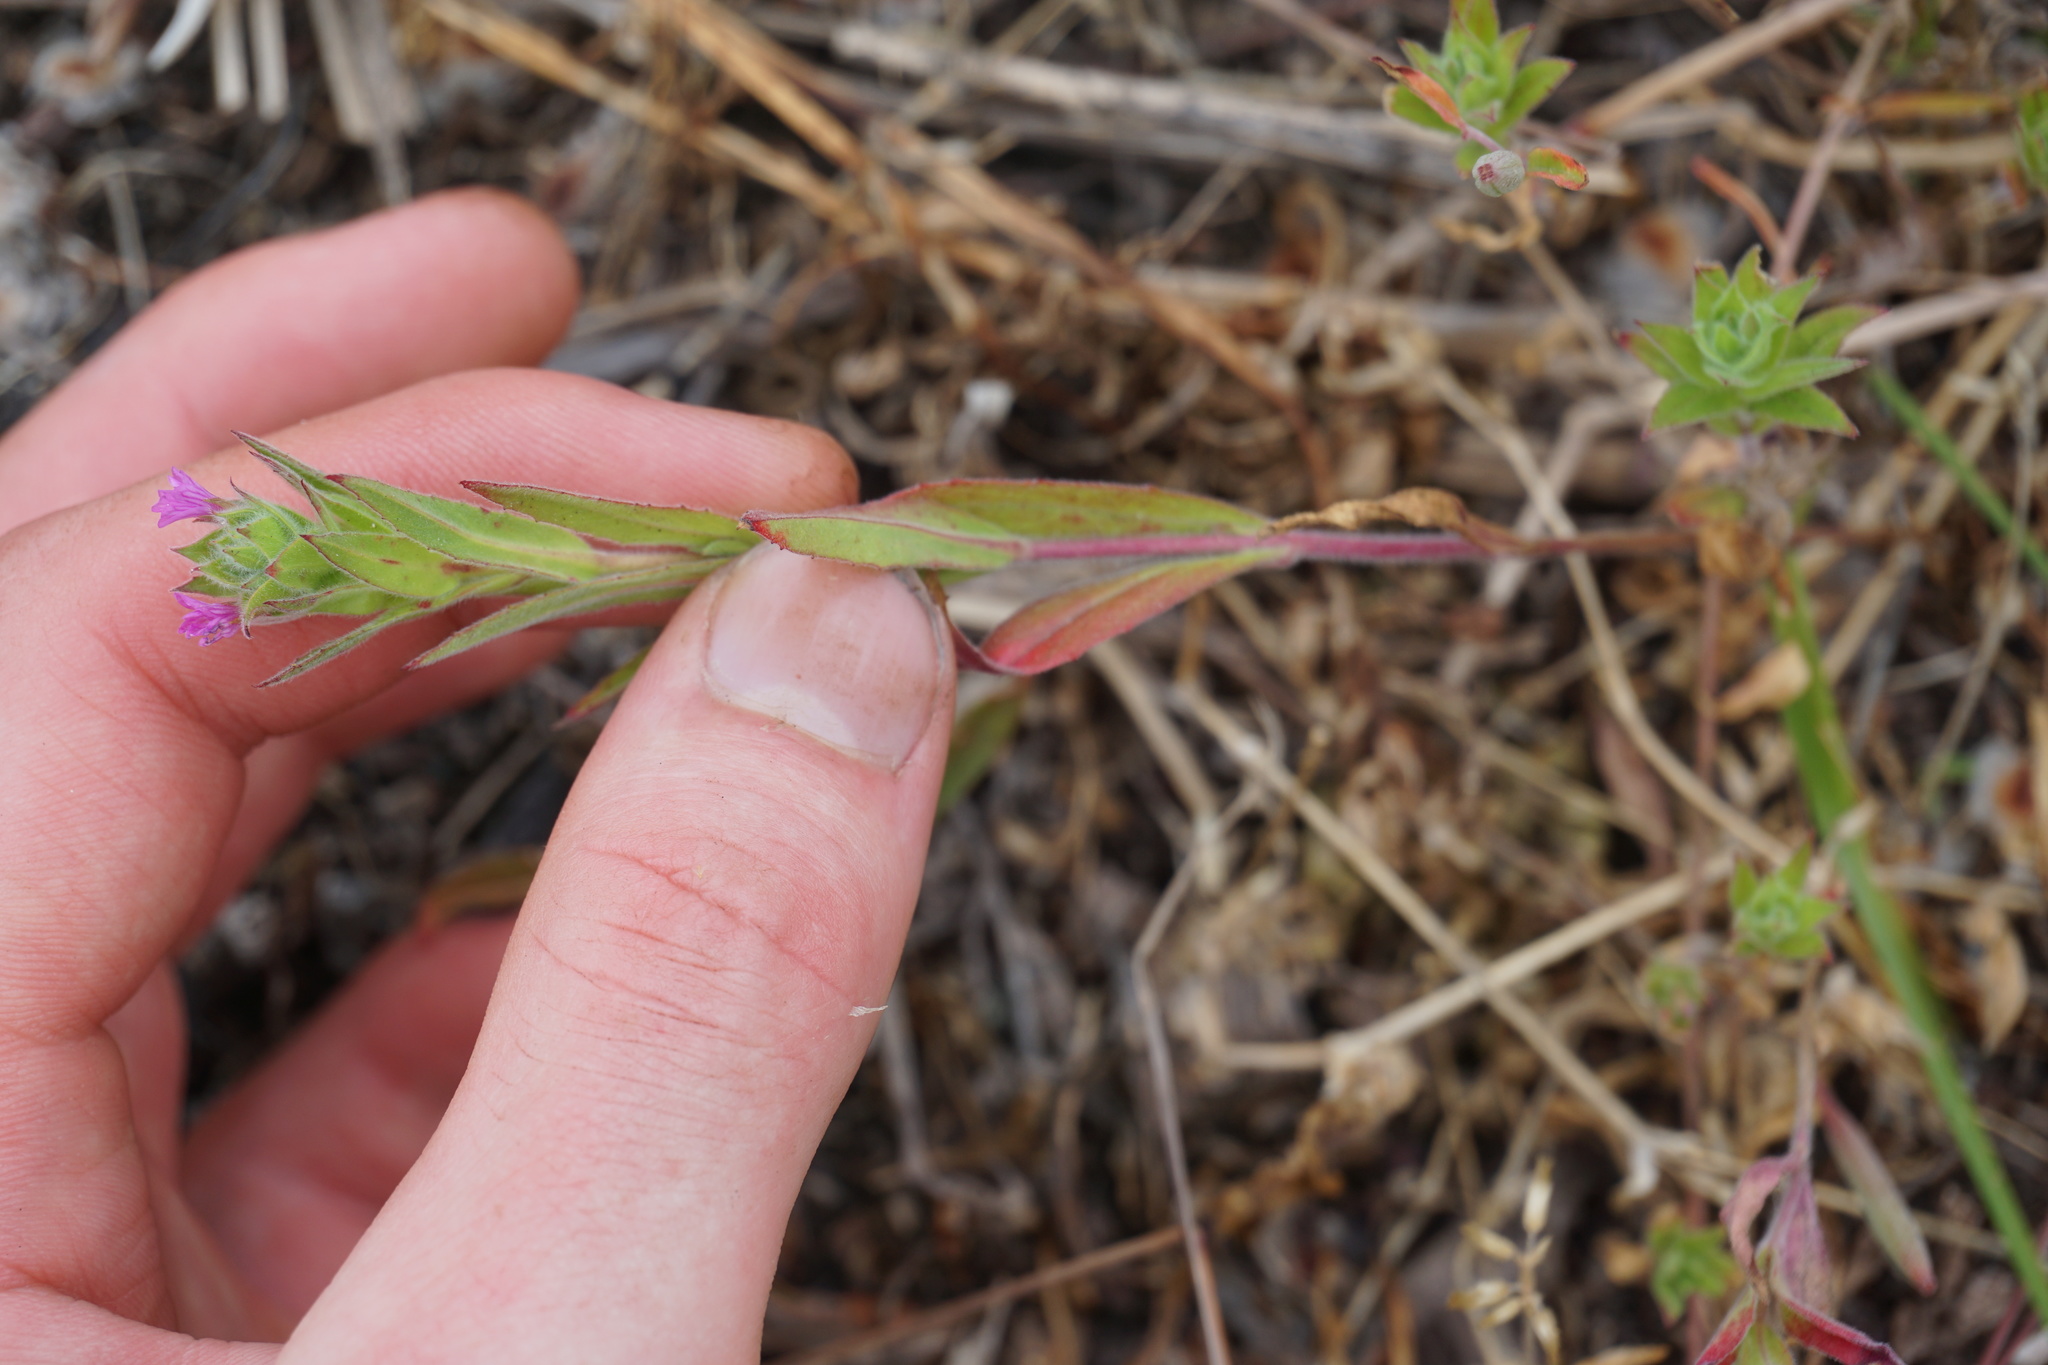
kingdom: Plantae
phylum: Tracheophyta
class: Magnoliopsida
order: Myrtales
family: Onagraceae
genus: Epilobium
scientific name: Epilobium densiflorum
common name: Dense spike-primrose
